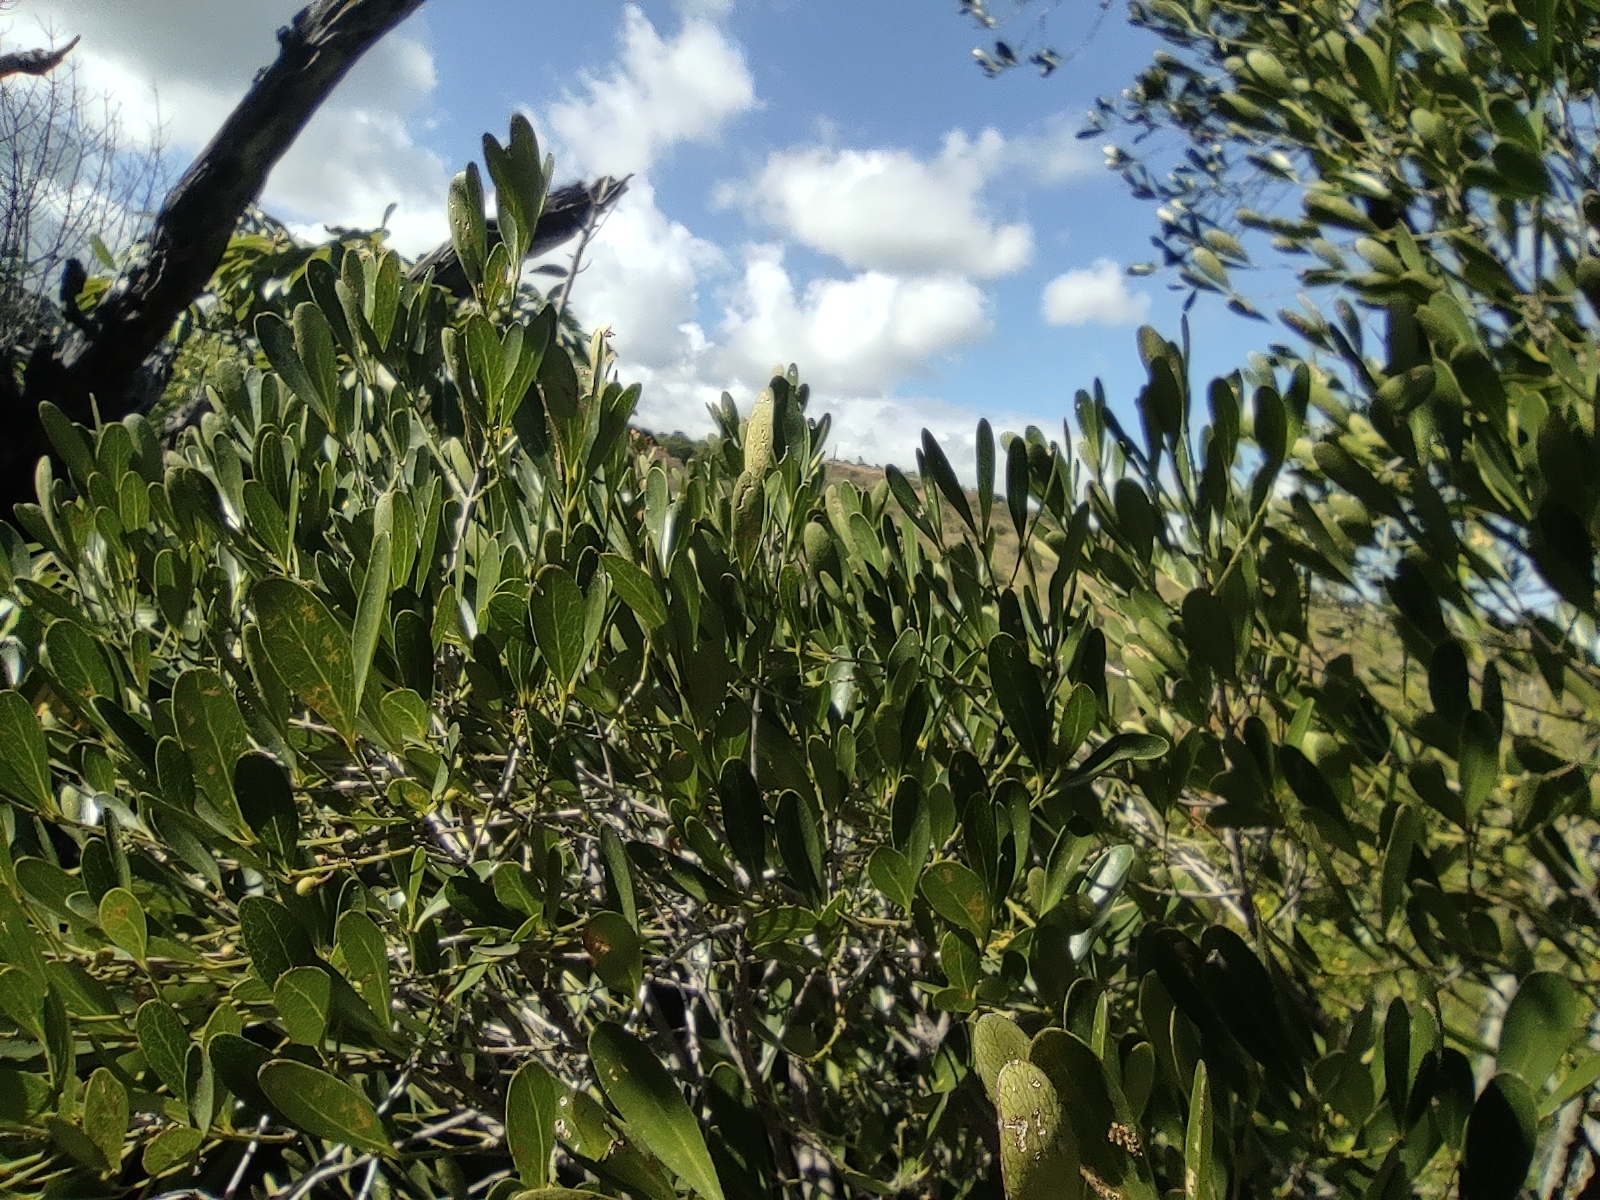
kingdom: Plantae
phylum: Tracheophyta
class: Magnoliopsida
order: Celastrales
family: Celastraceae
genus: Pleurostylia
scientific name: Pleurostylia pachyphloea
